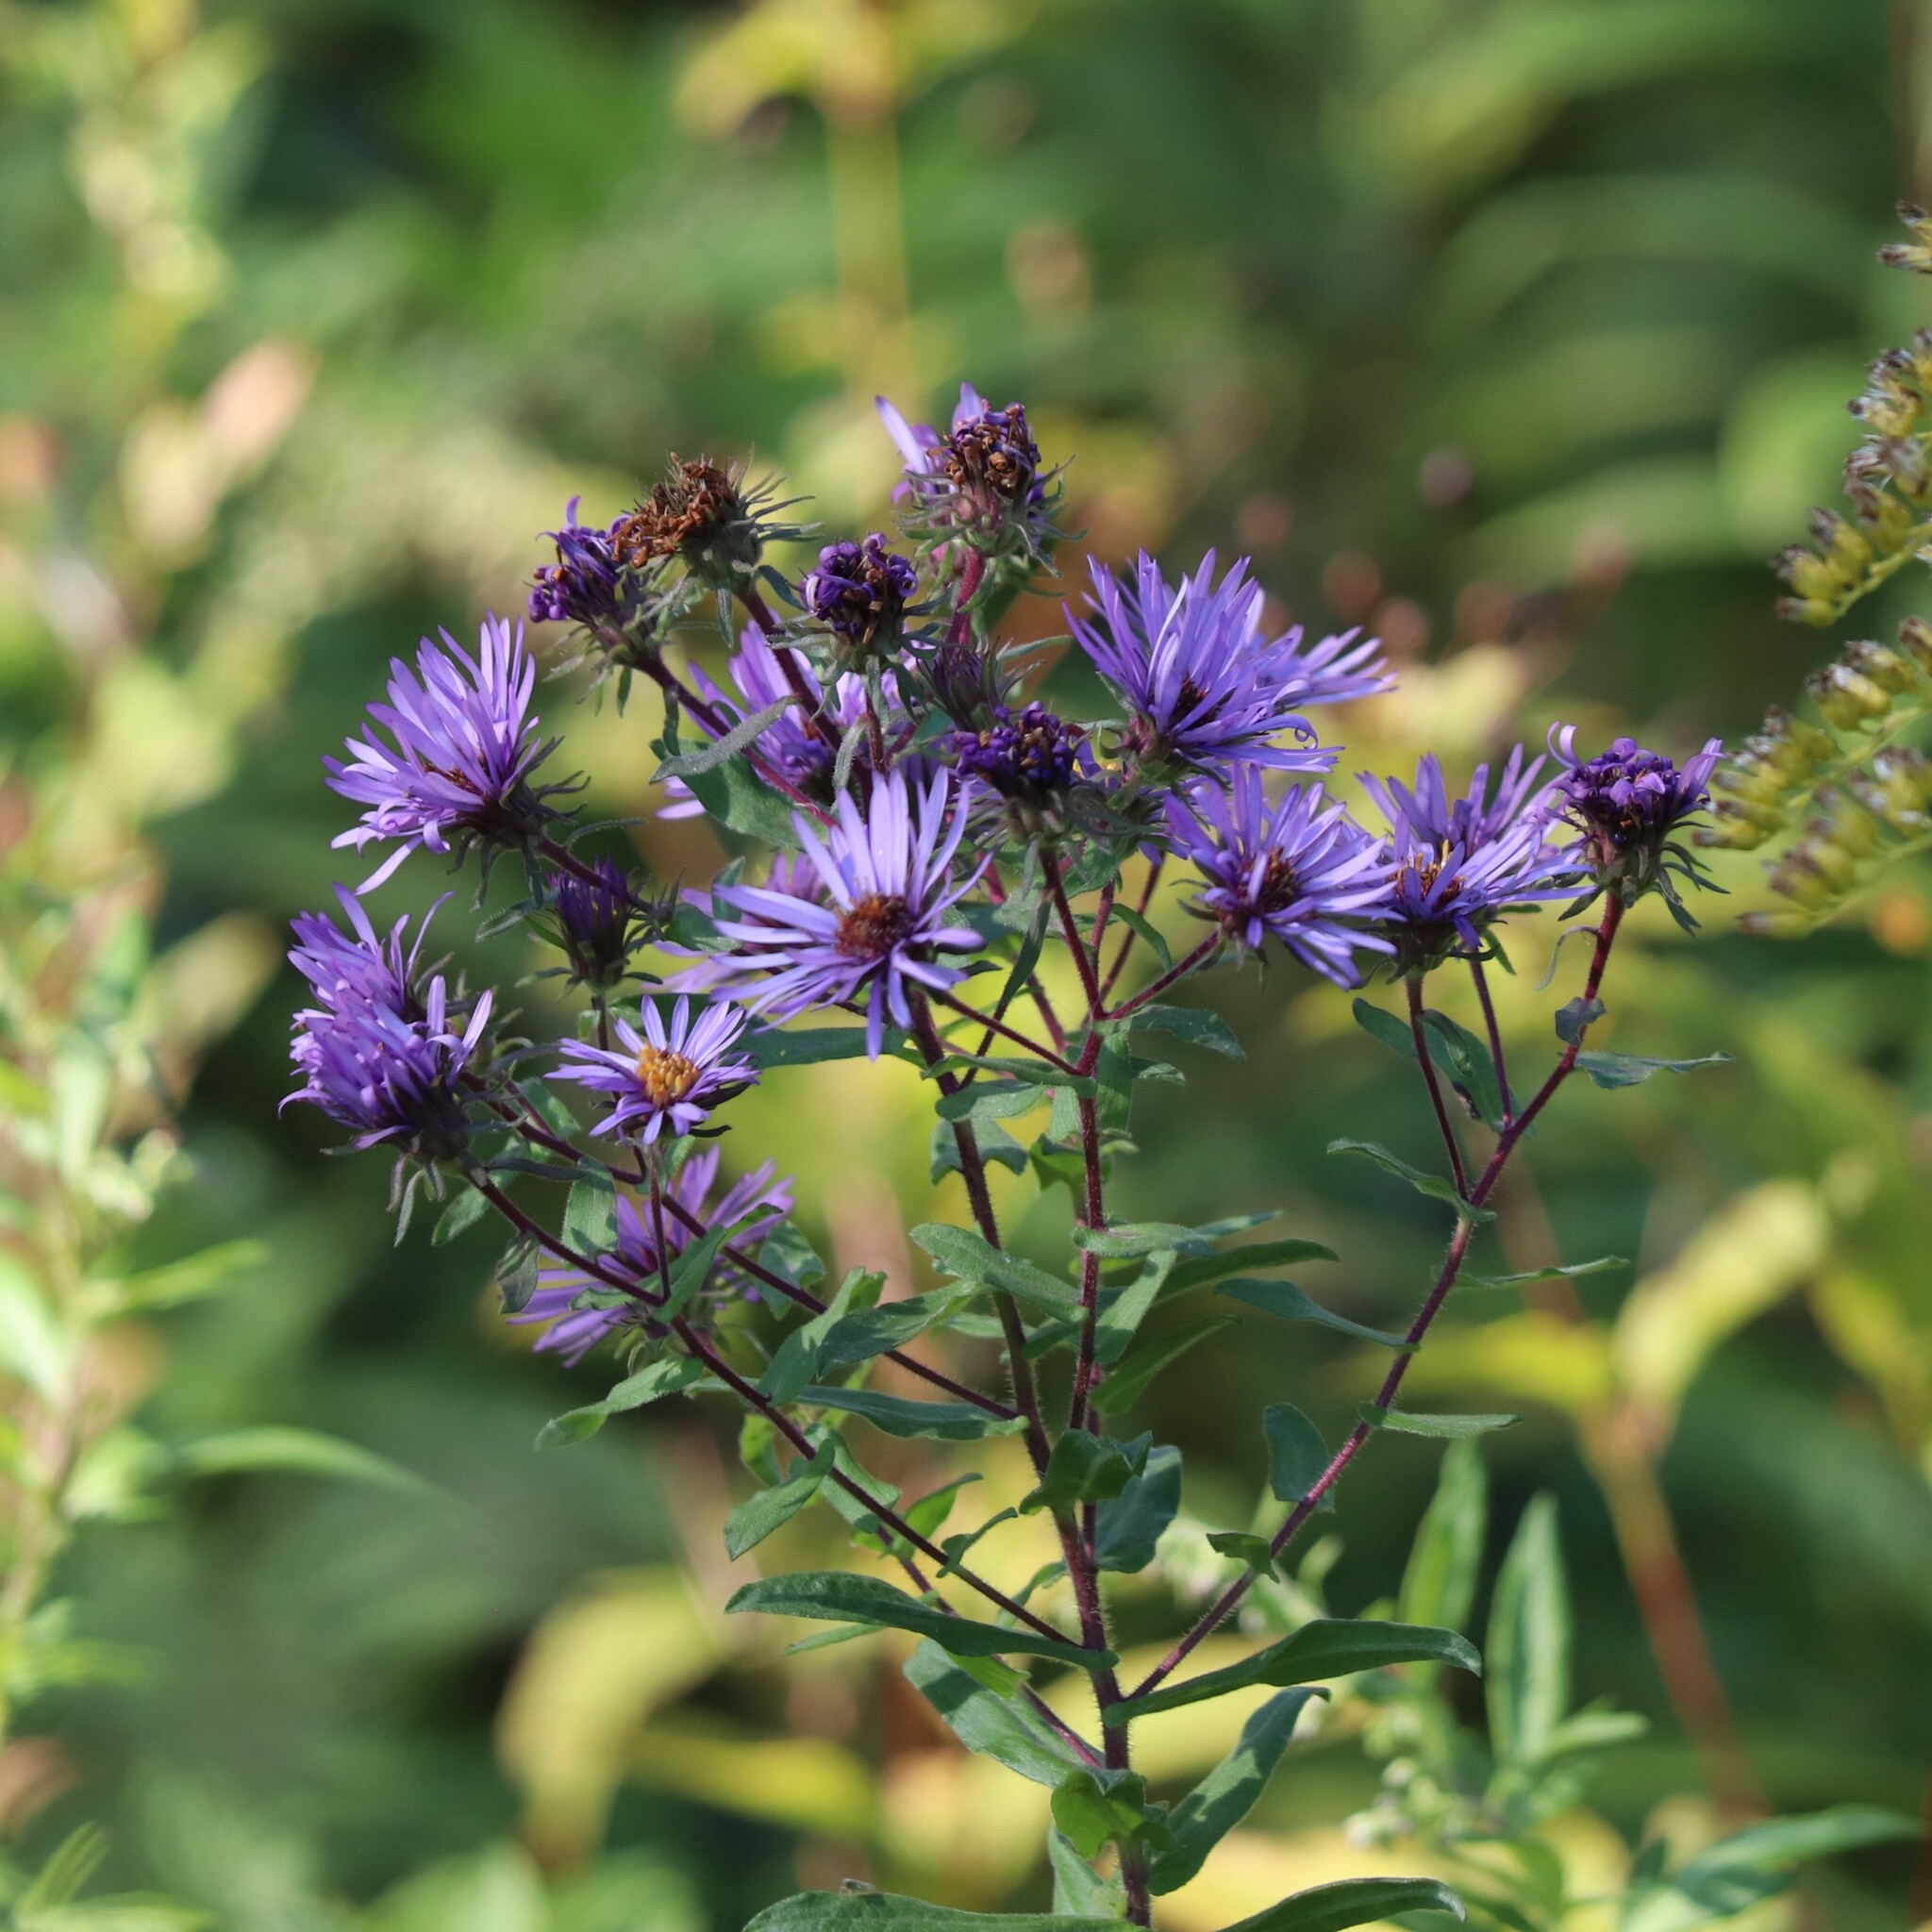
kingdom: Plantae
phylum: Tracheophyta
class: Magnoliopsida
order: Asterales
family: Asteraceae
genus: Symphyotrichum
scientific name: Symphyotrichum novae-angliae
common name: Michaelmas daisy
